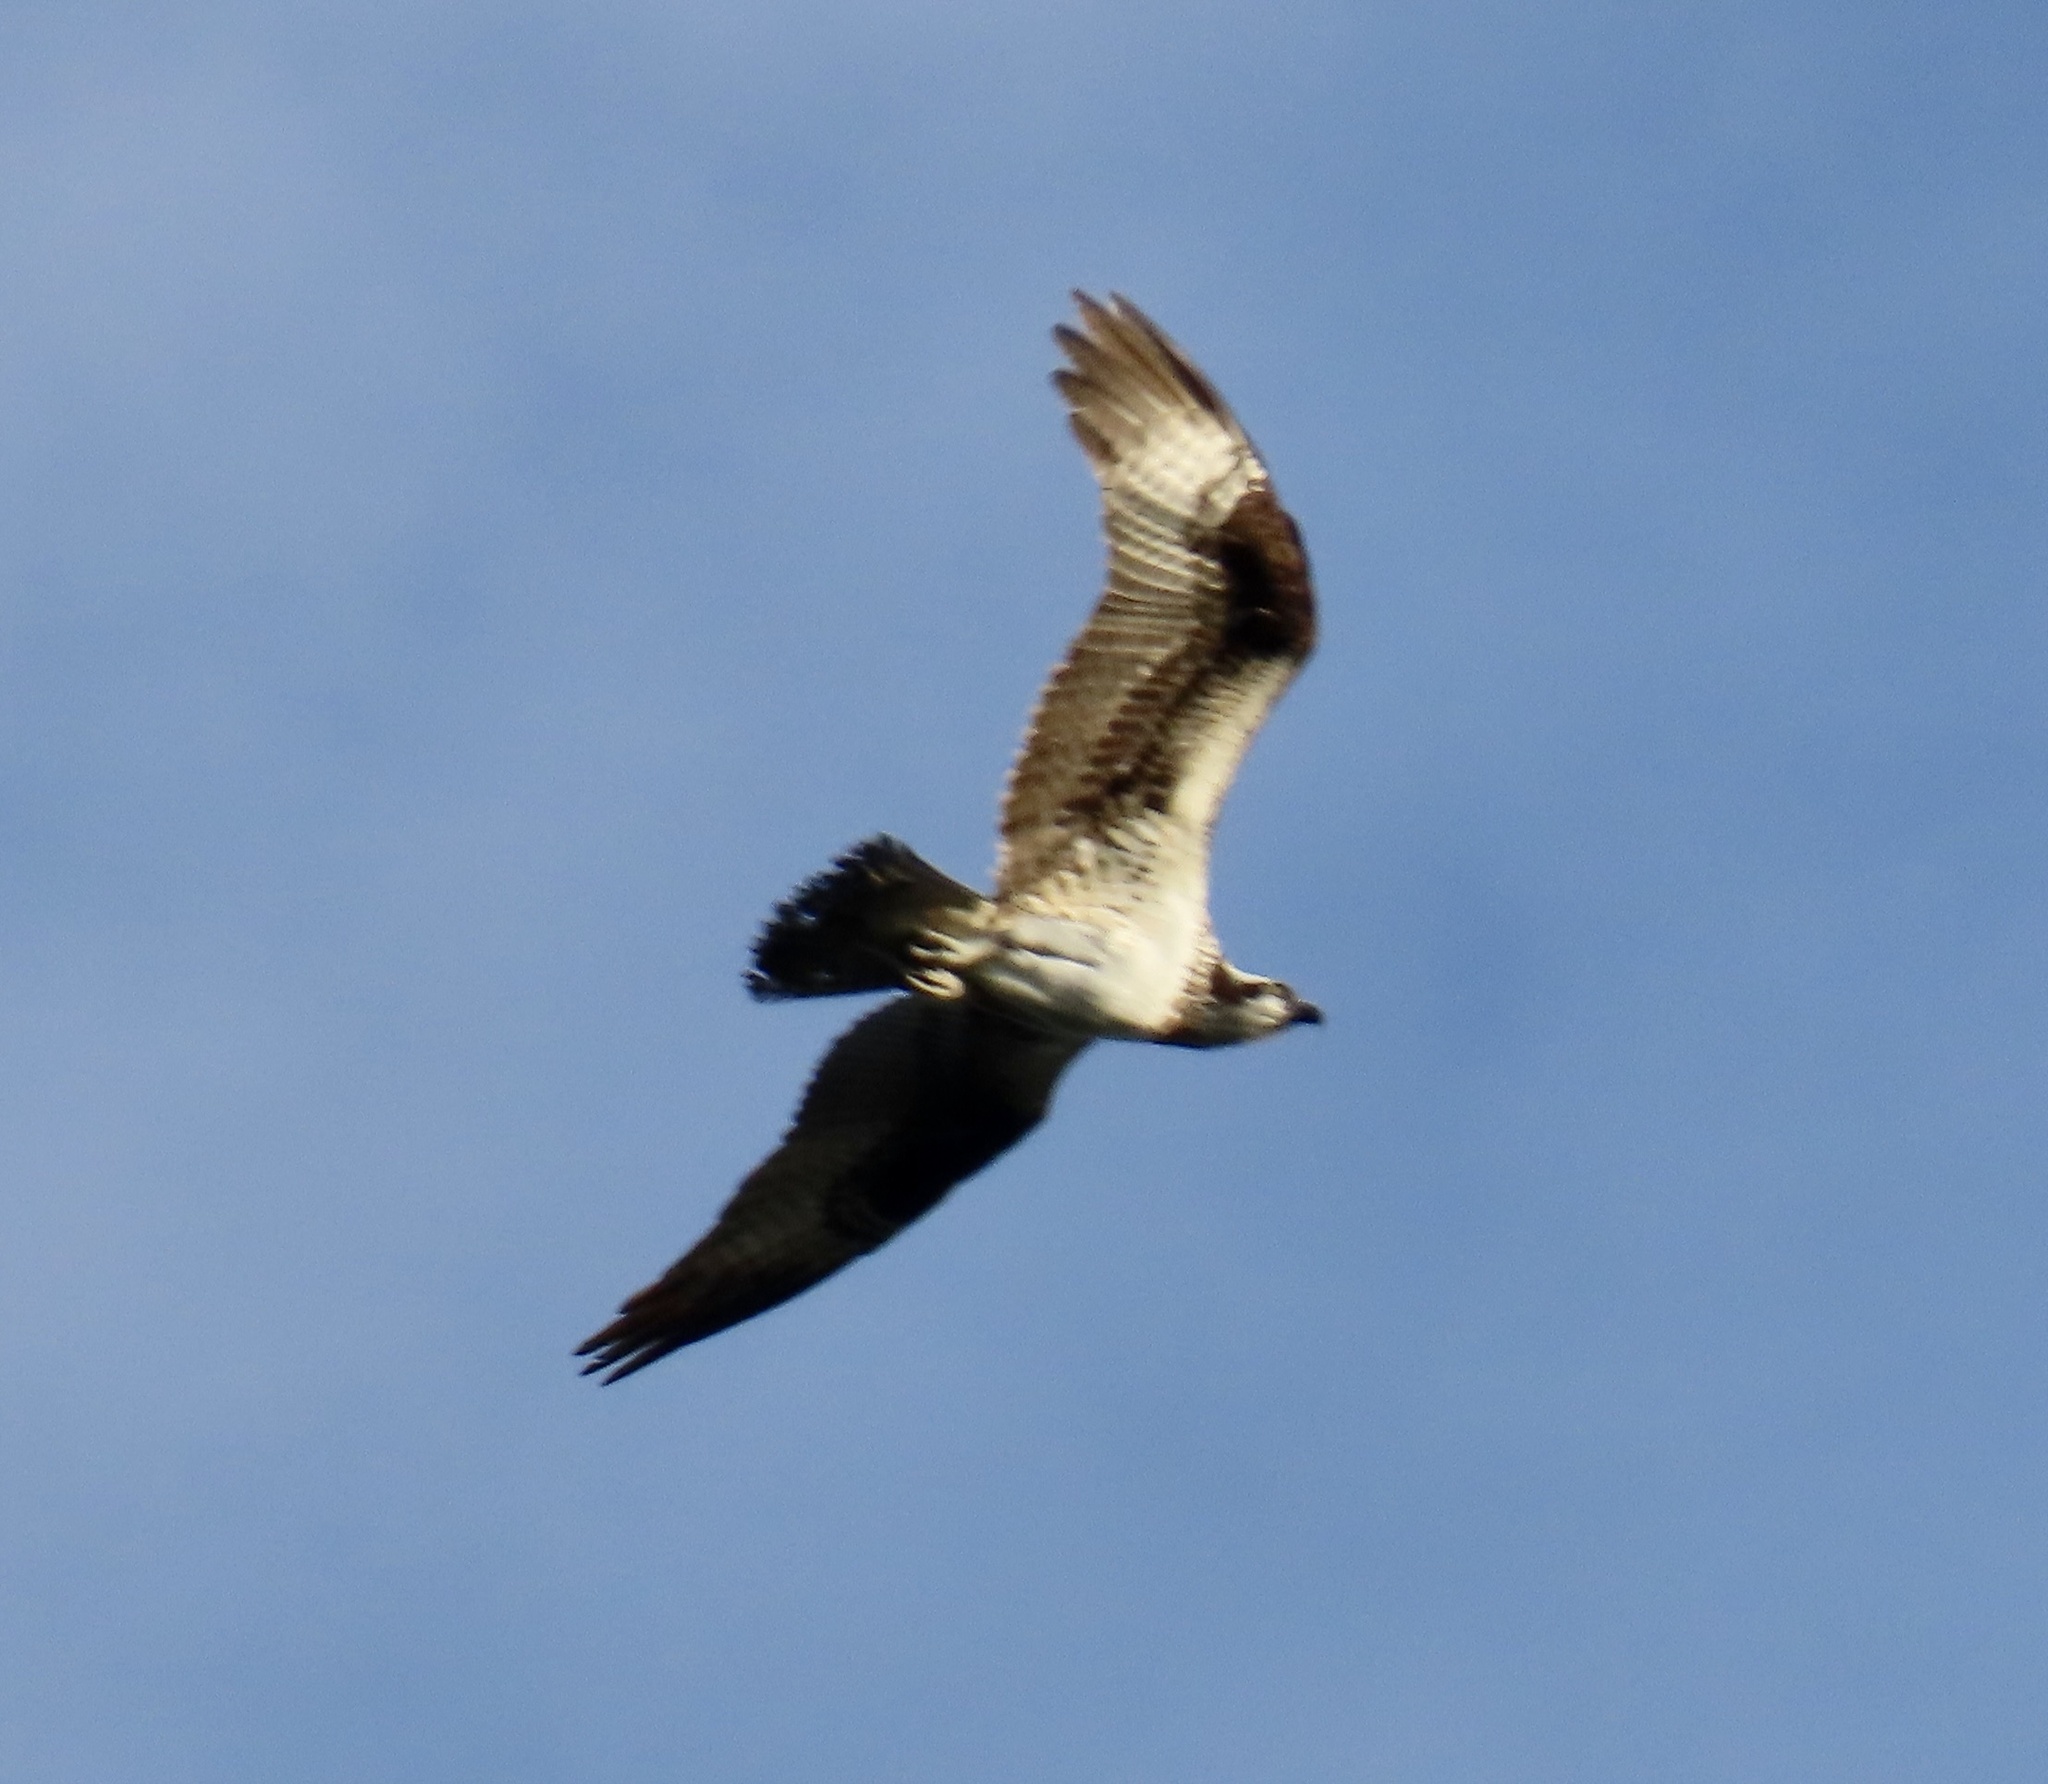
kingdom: Animalia
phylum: Chordata
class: Aves
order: Accipitriformes
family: Pandionidae
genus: Pandion
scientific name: Pandion haliaetus
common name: Osprey
